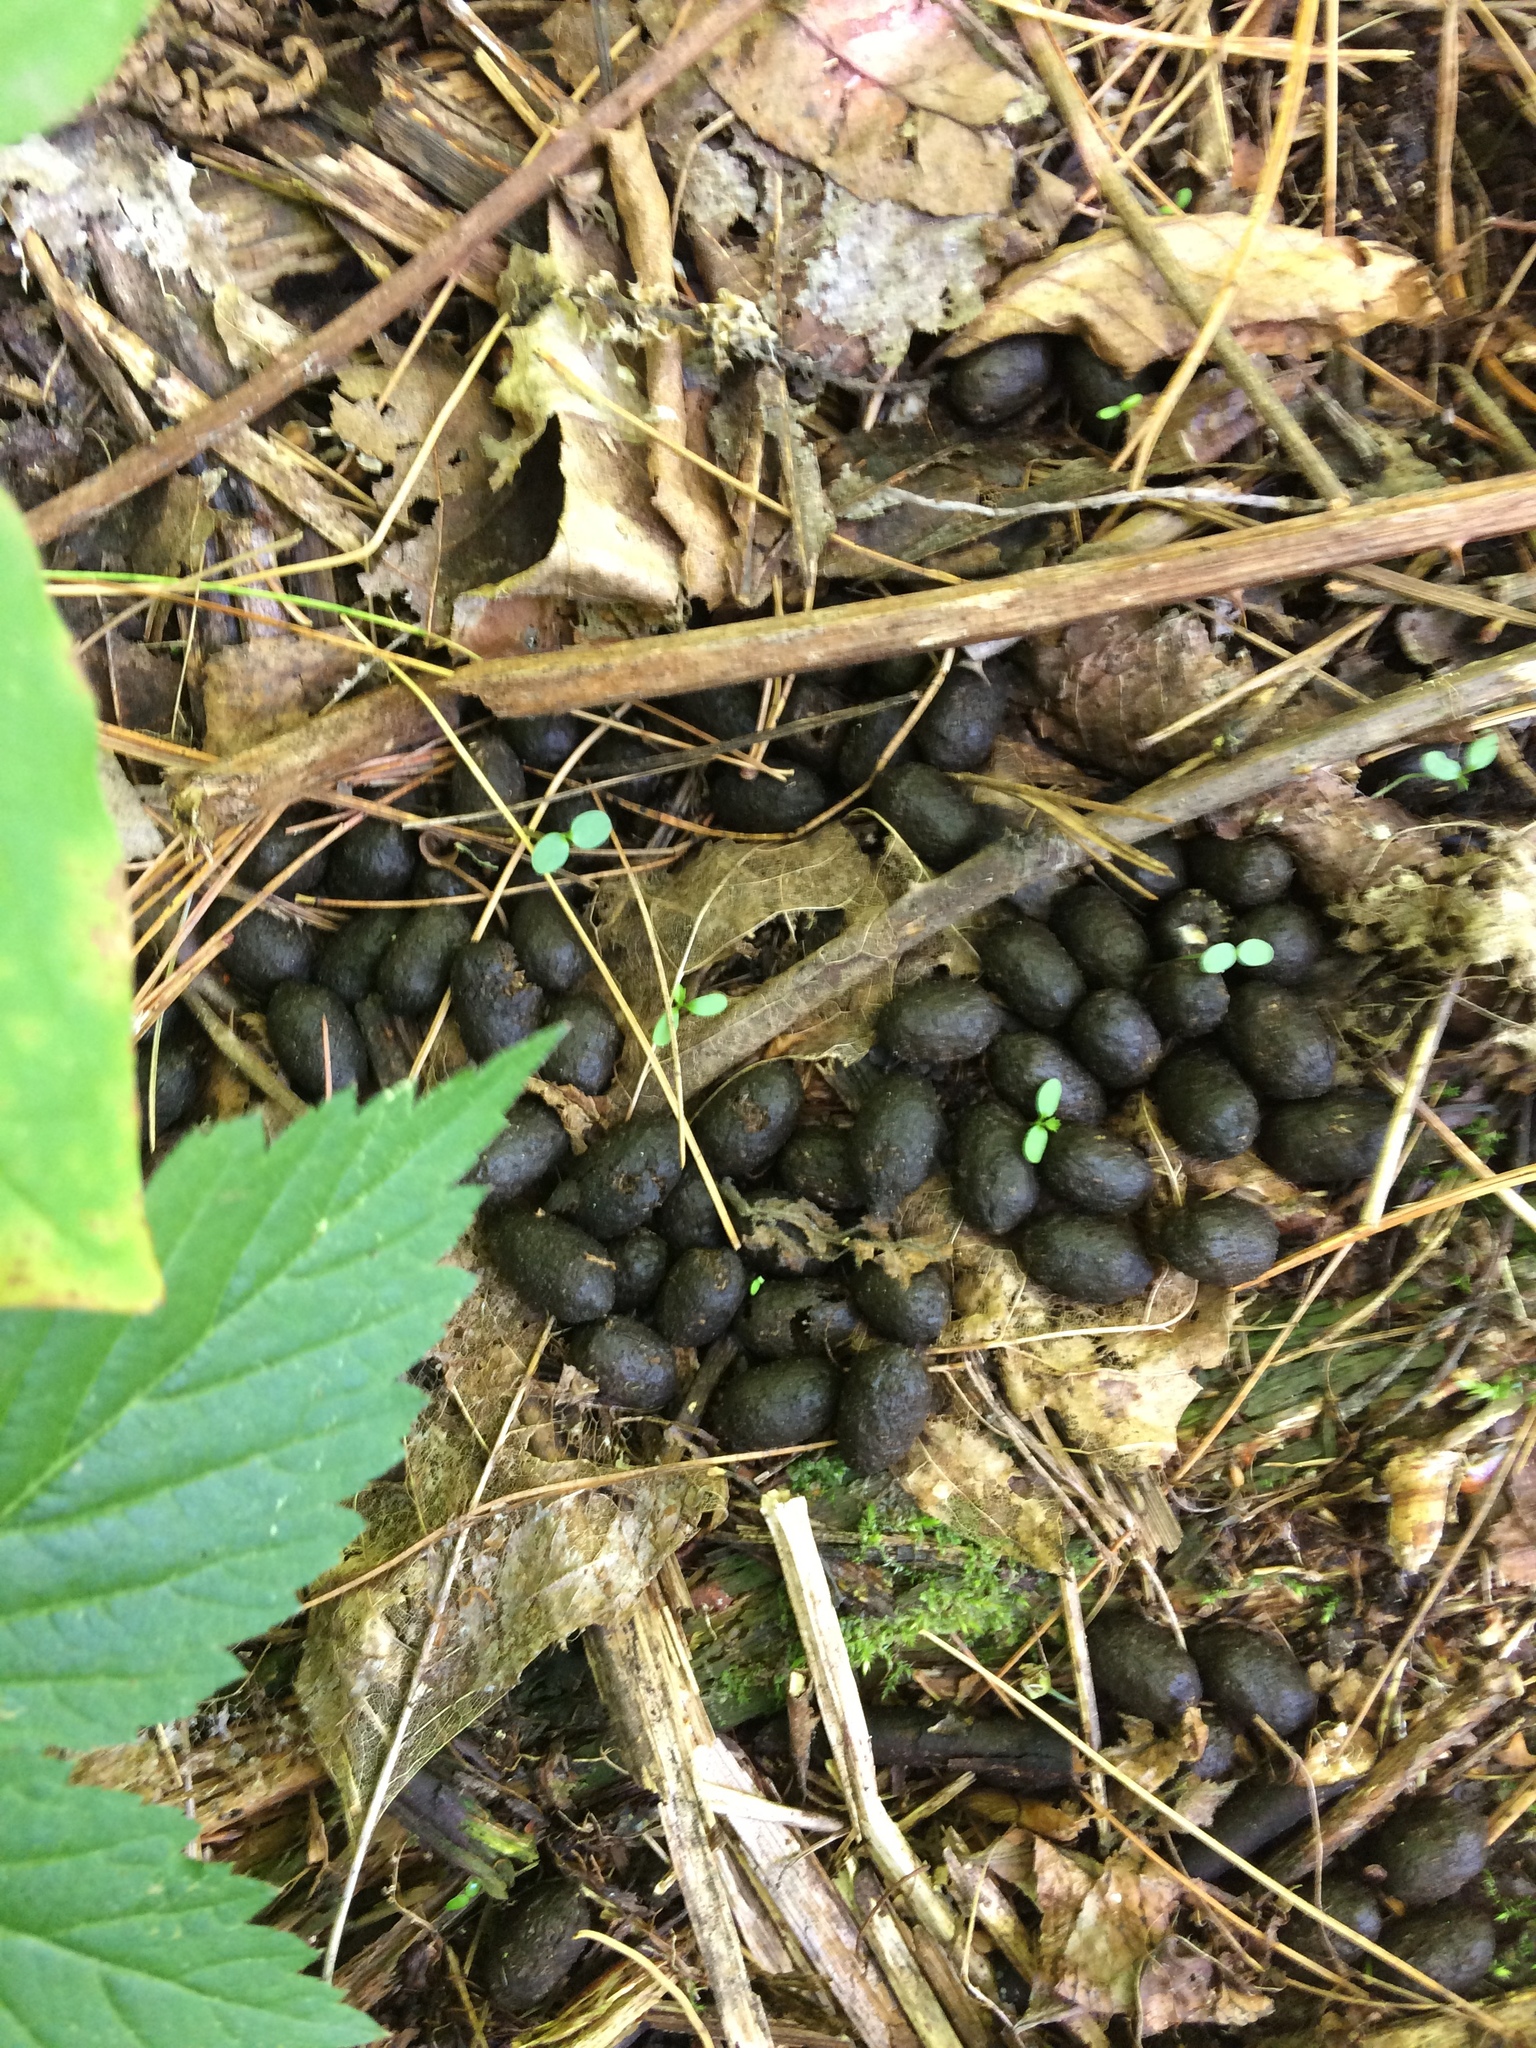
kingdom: Animalia
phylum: Chordata
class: Mammalia
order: Artiodactyla
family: Cervidae
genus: Odocoileus
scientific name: Odocoileus virginianus
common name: White-tailed deer
